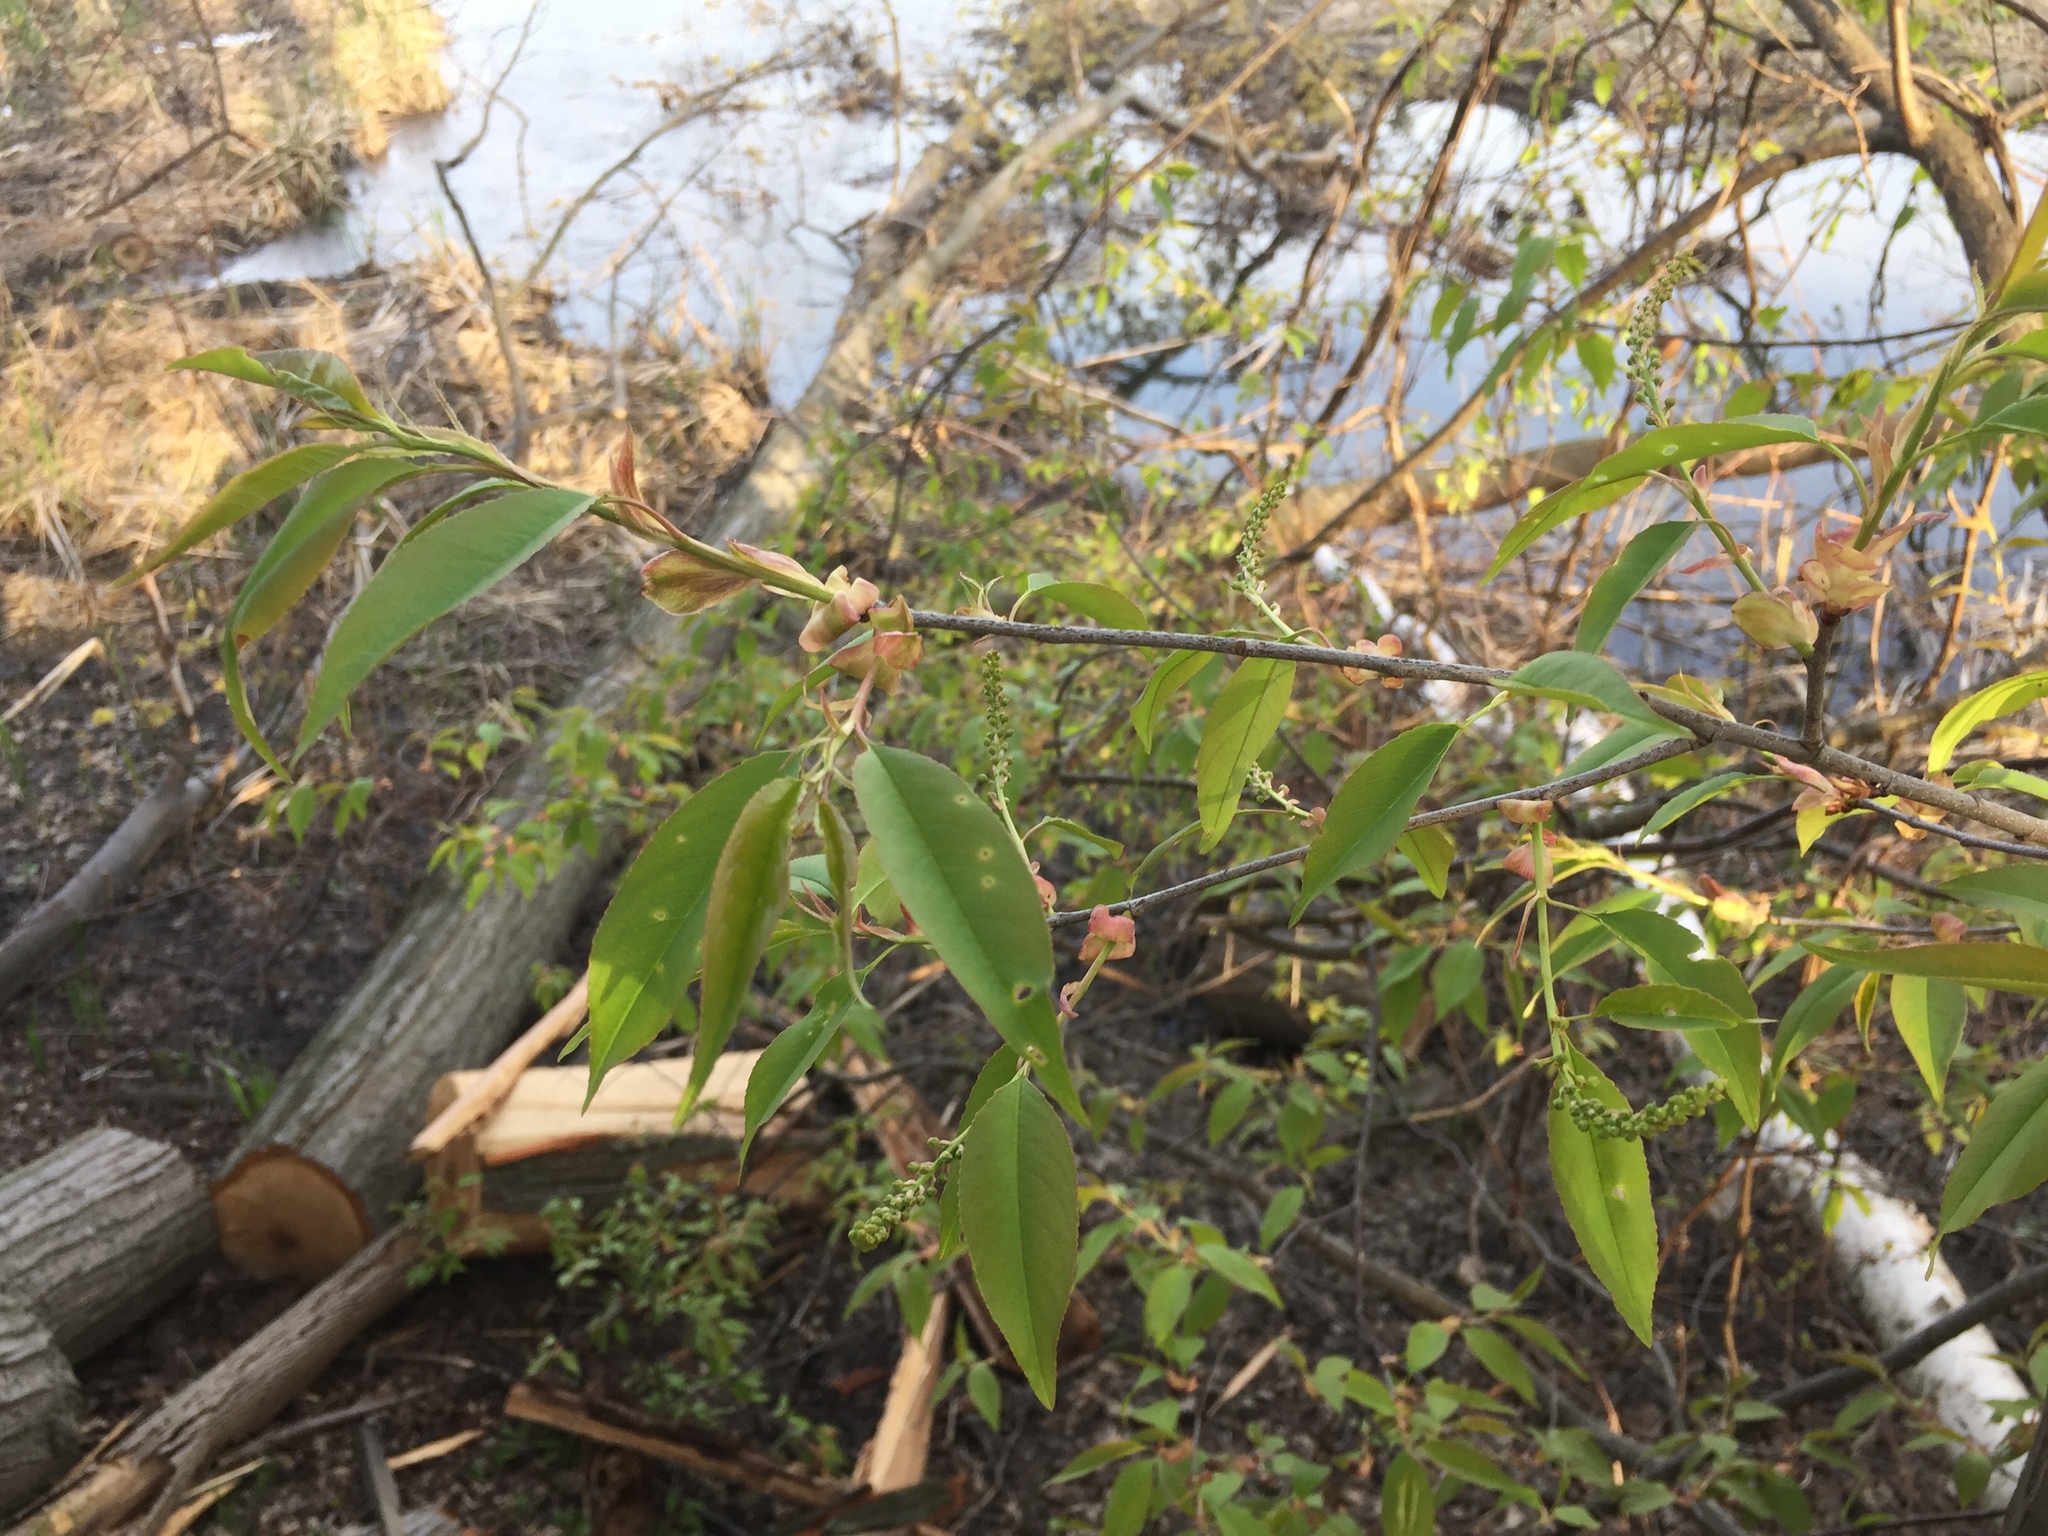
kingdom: Plantae
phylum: Tracheophyta
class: Magnoliopsida
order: Rosales
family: Rosaceae
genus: Prunus
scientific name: Prunus serotina
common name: Black cherry
